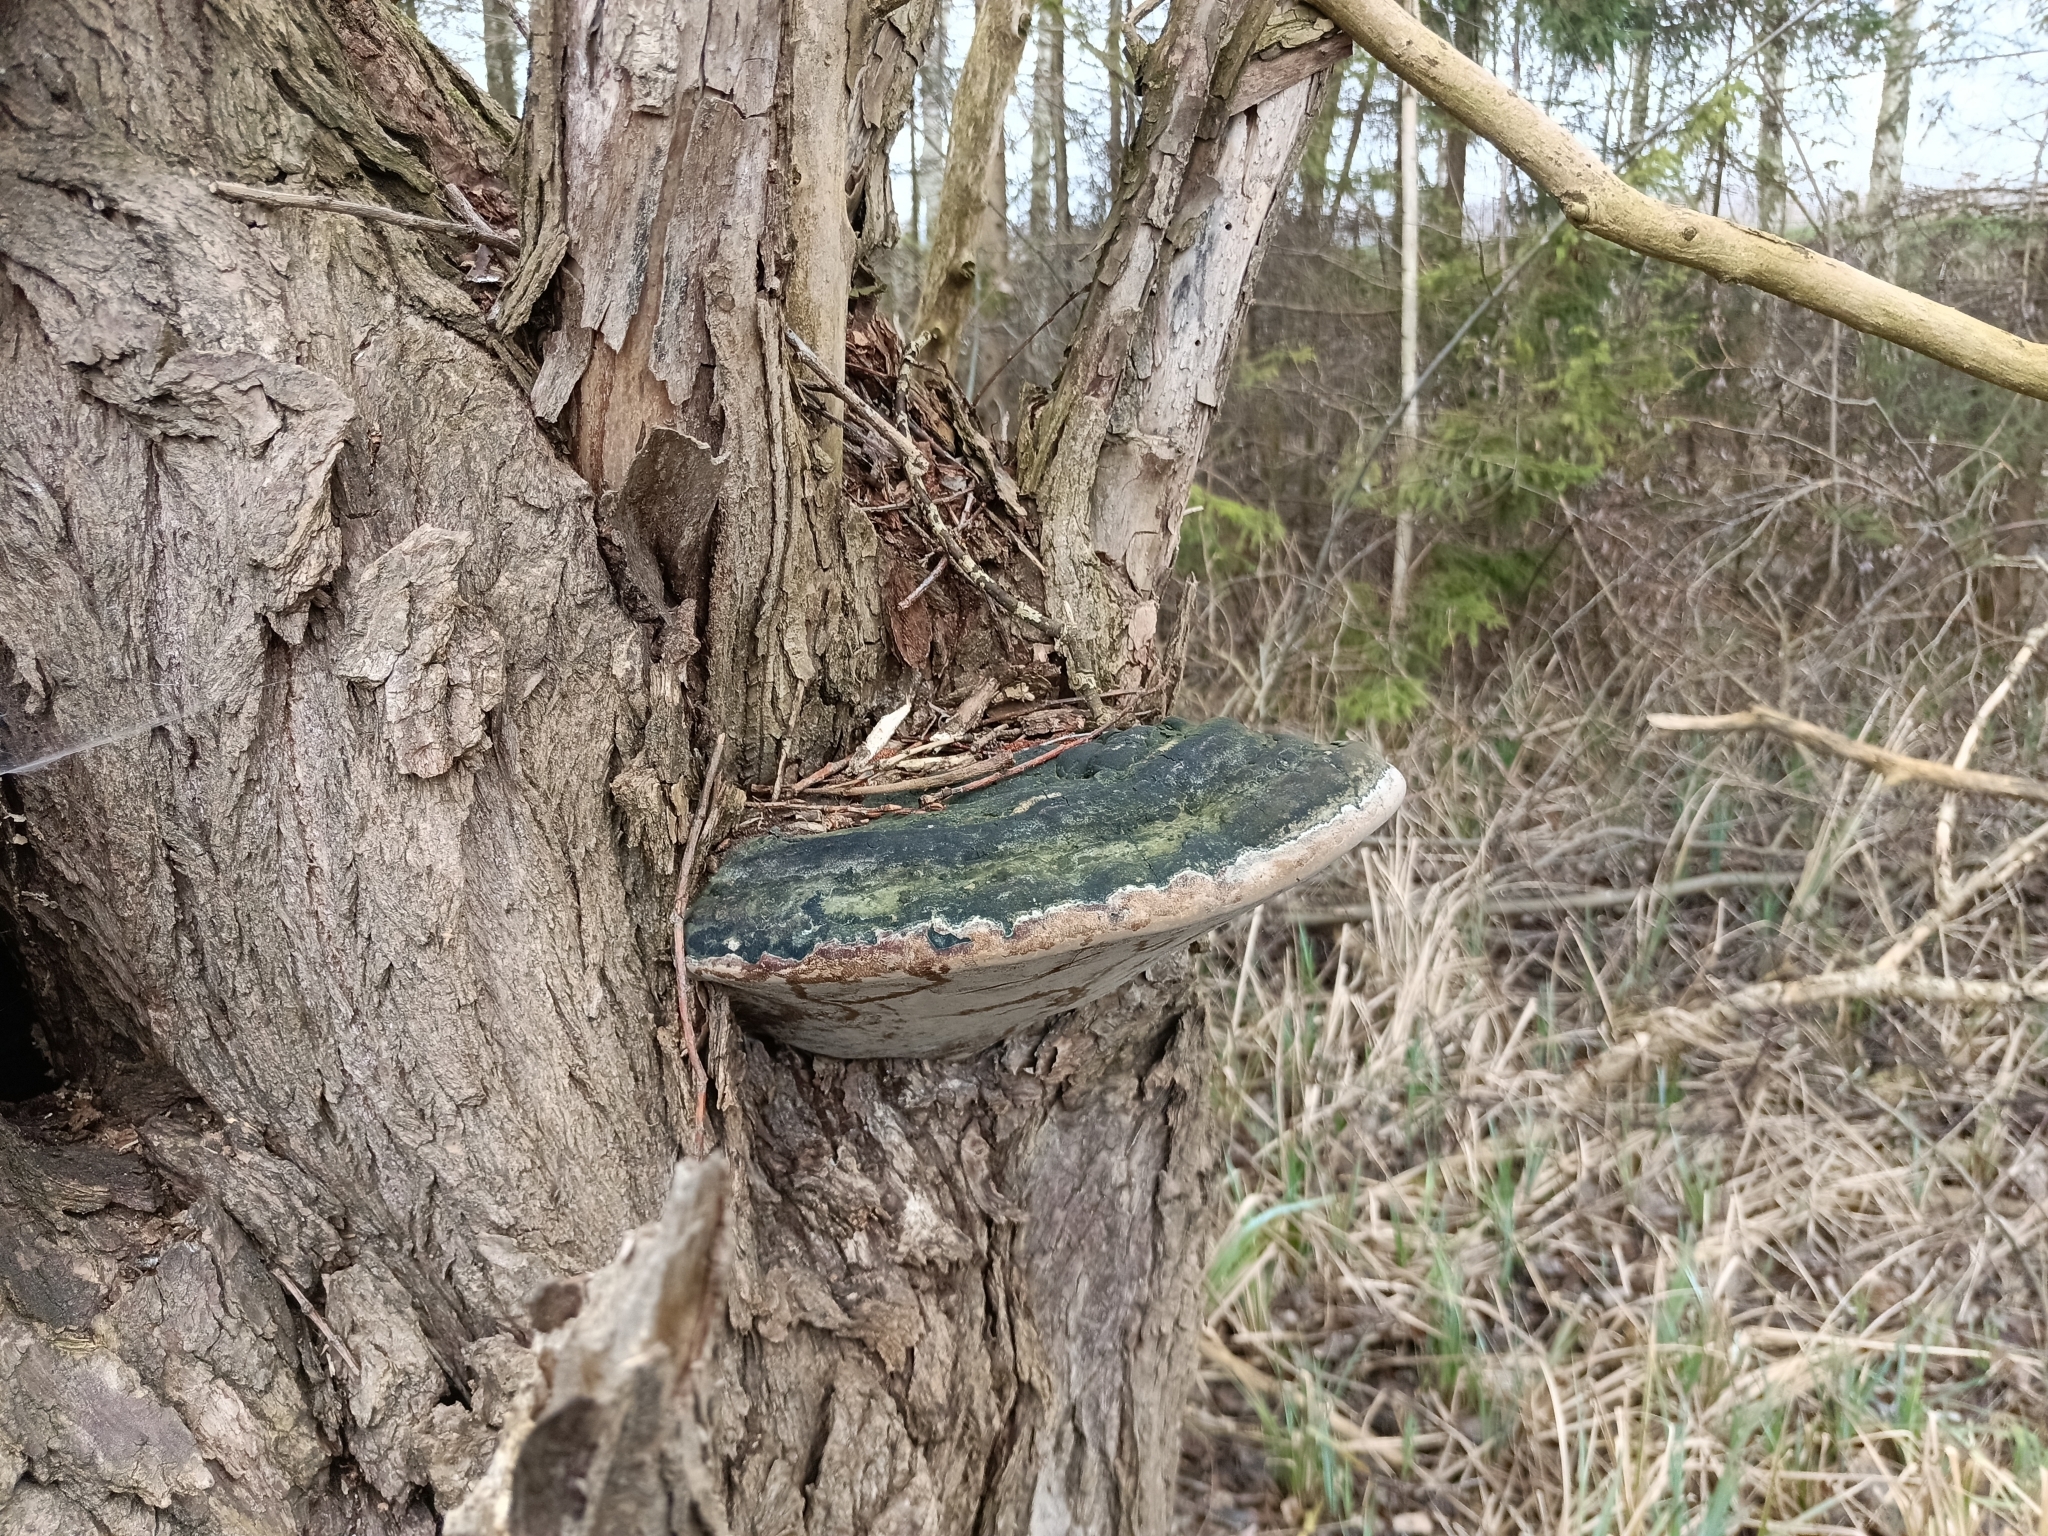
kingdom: Fungi
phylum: Basidiomycota
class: Agaricomycetes
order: Hymenochaetales
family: Hymenochaetaceae
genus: Phellinus
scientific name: Phellinus igniarius
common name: Willow bracket
